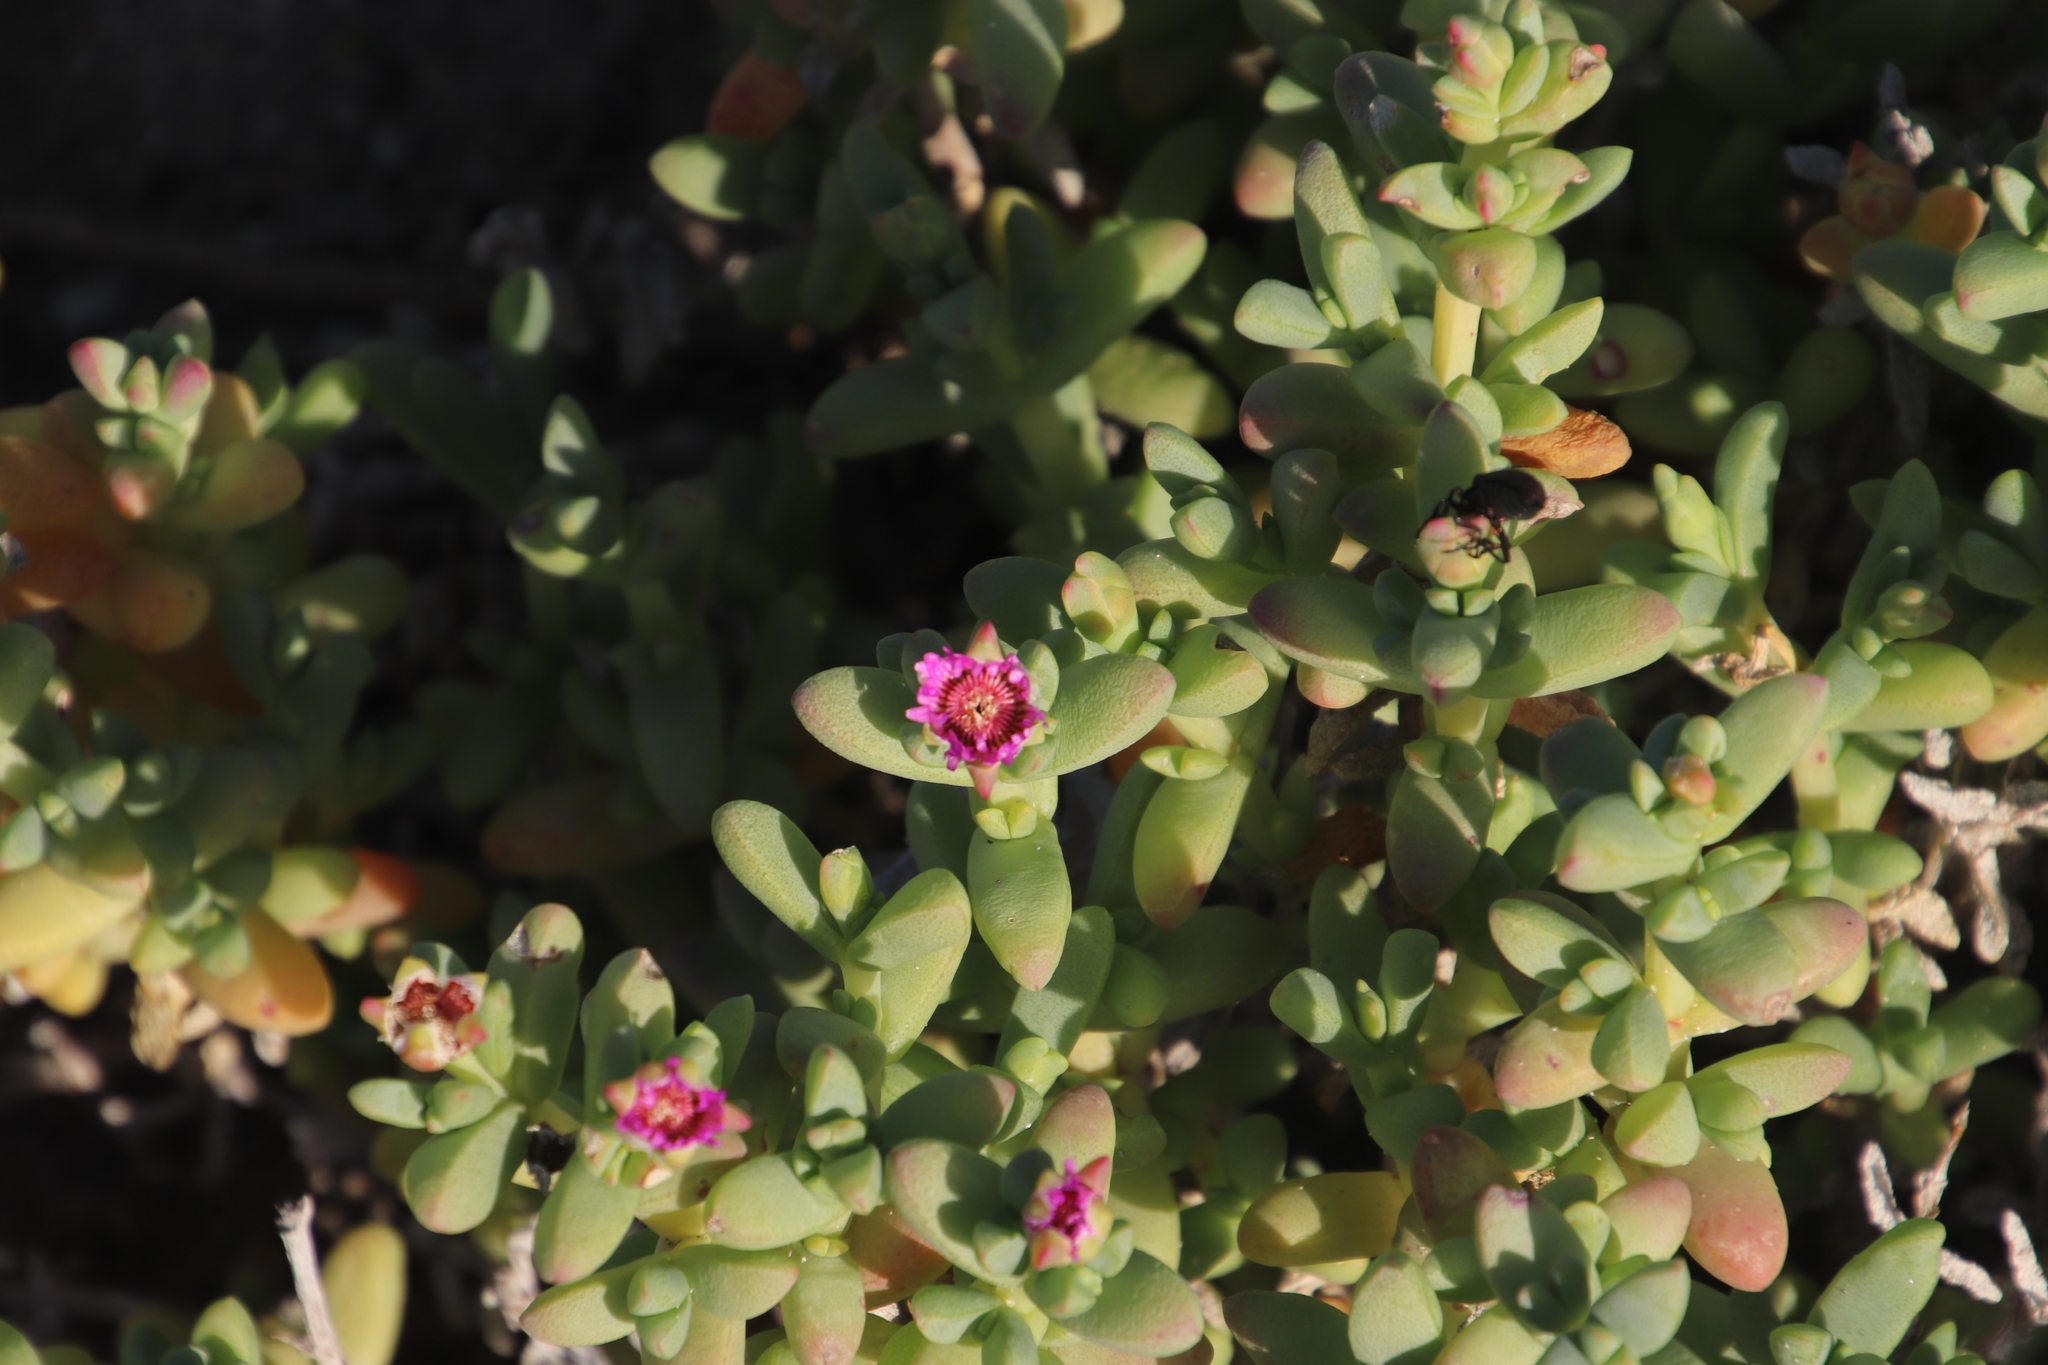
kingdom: Plantae
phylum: Tracheophyta
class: Magnoliopsida
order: Caryophyllales
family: Aizoaceae
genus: Amphibolia
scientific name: Amphibolia laevis
